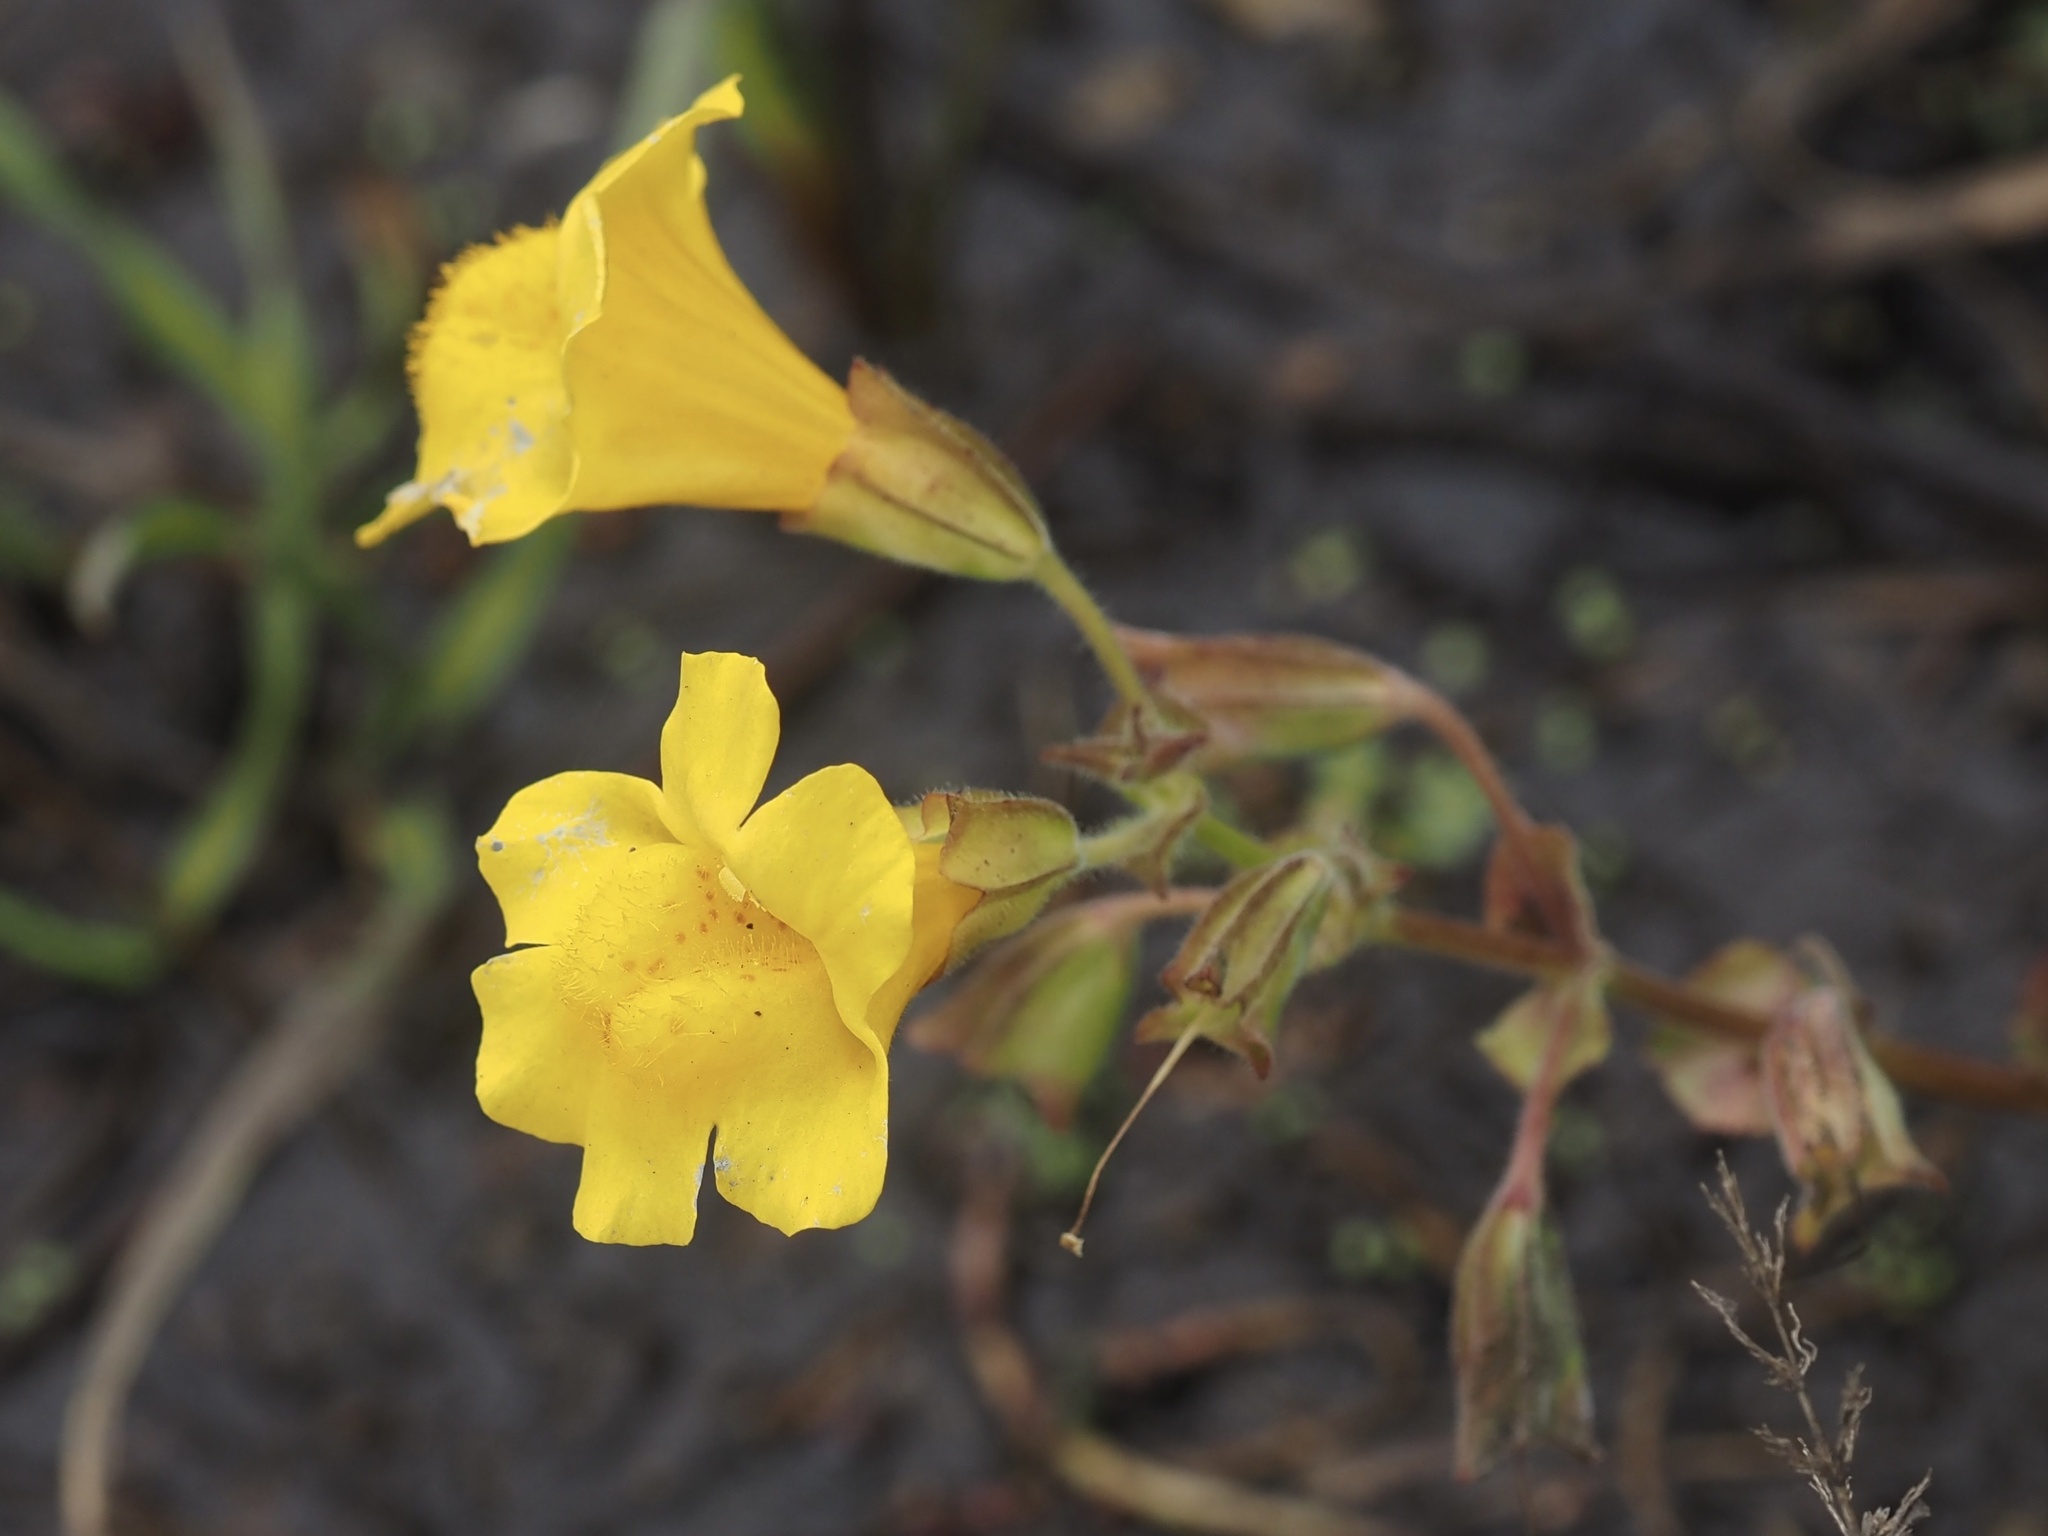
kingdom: Plantae
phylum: Tracheophyta
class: Magnoliopsida
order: Lamiales
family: Phrymaceae
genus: Erythranthe
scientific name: Erythranthe grandis
